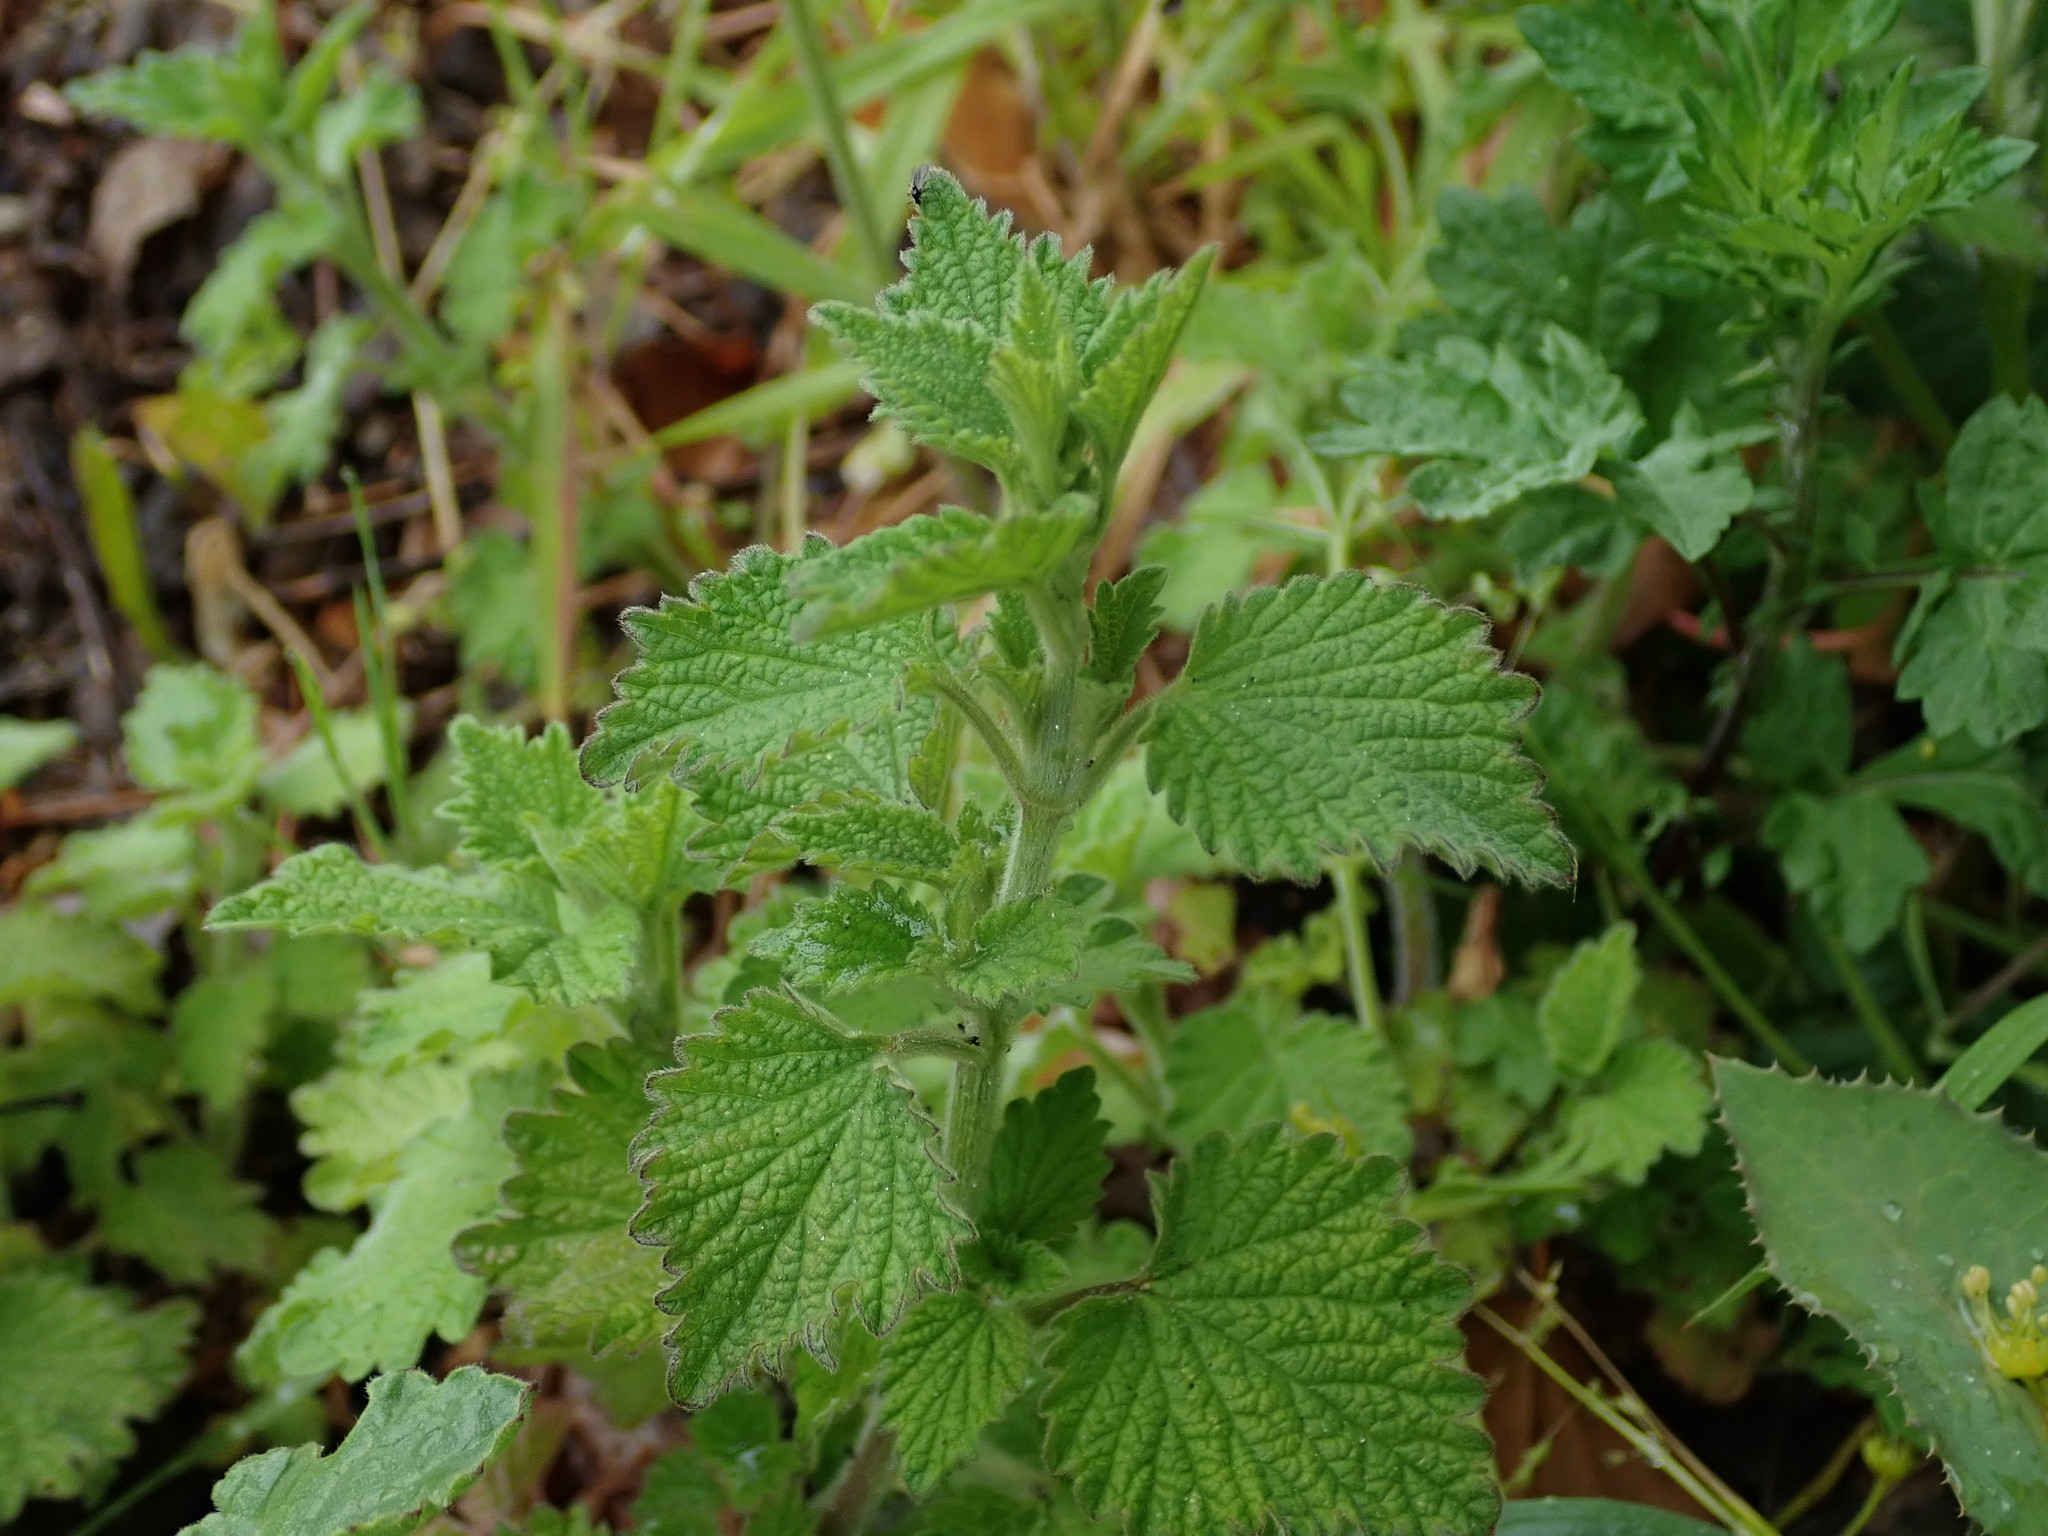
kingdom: Plantae
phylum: Tracheophyta
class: Magnoliopsida
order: Lamiales
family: Lamiaceae
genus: Ballota
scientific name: Ballota nigra
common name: Black horehound
